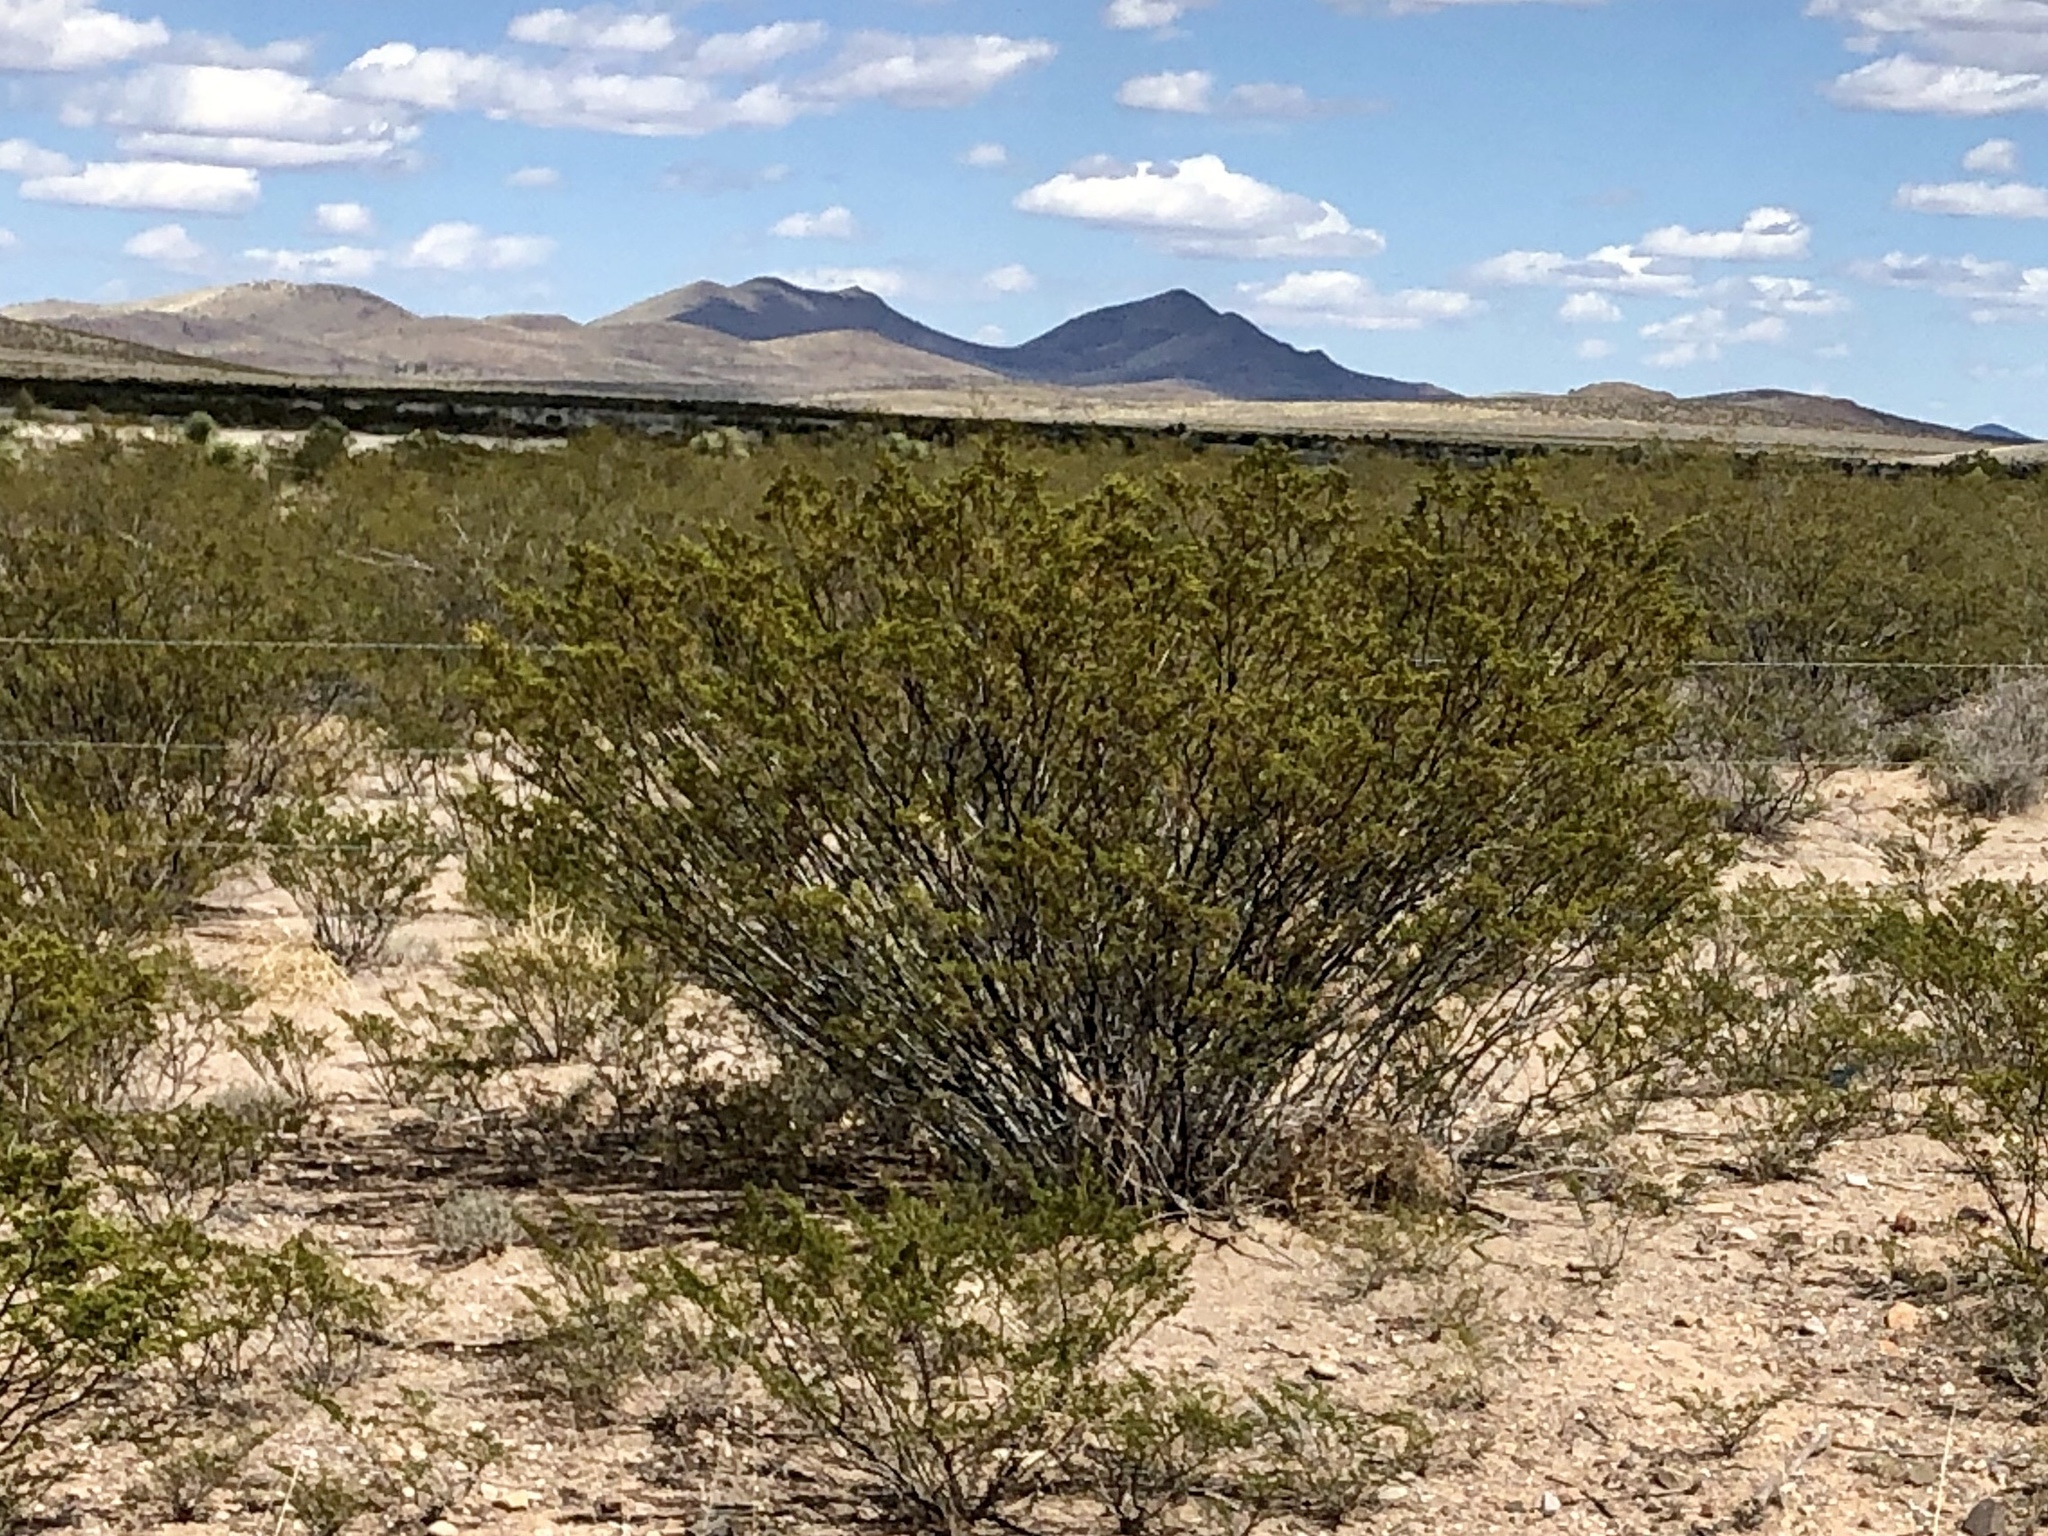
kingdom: Plantae
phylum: Tracheophyta
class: Magnoliopsida
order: Zygophyllales
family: Zygophyllaceae
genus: Larrea
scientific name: Larrea tridentata
